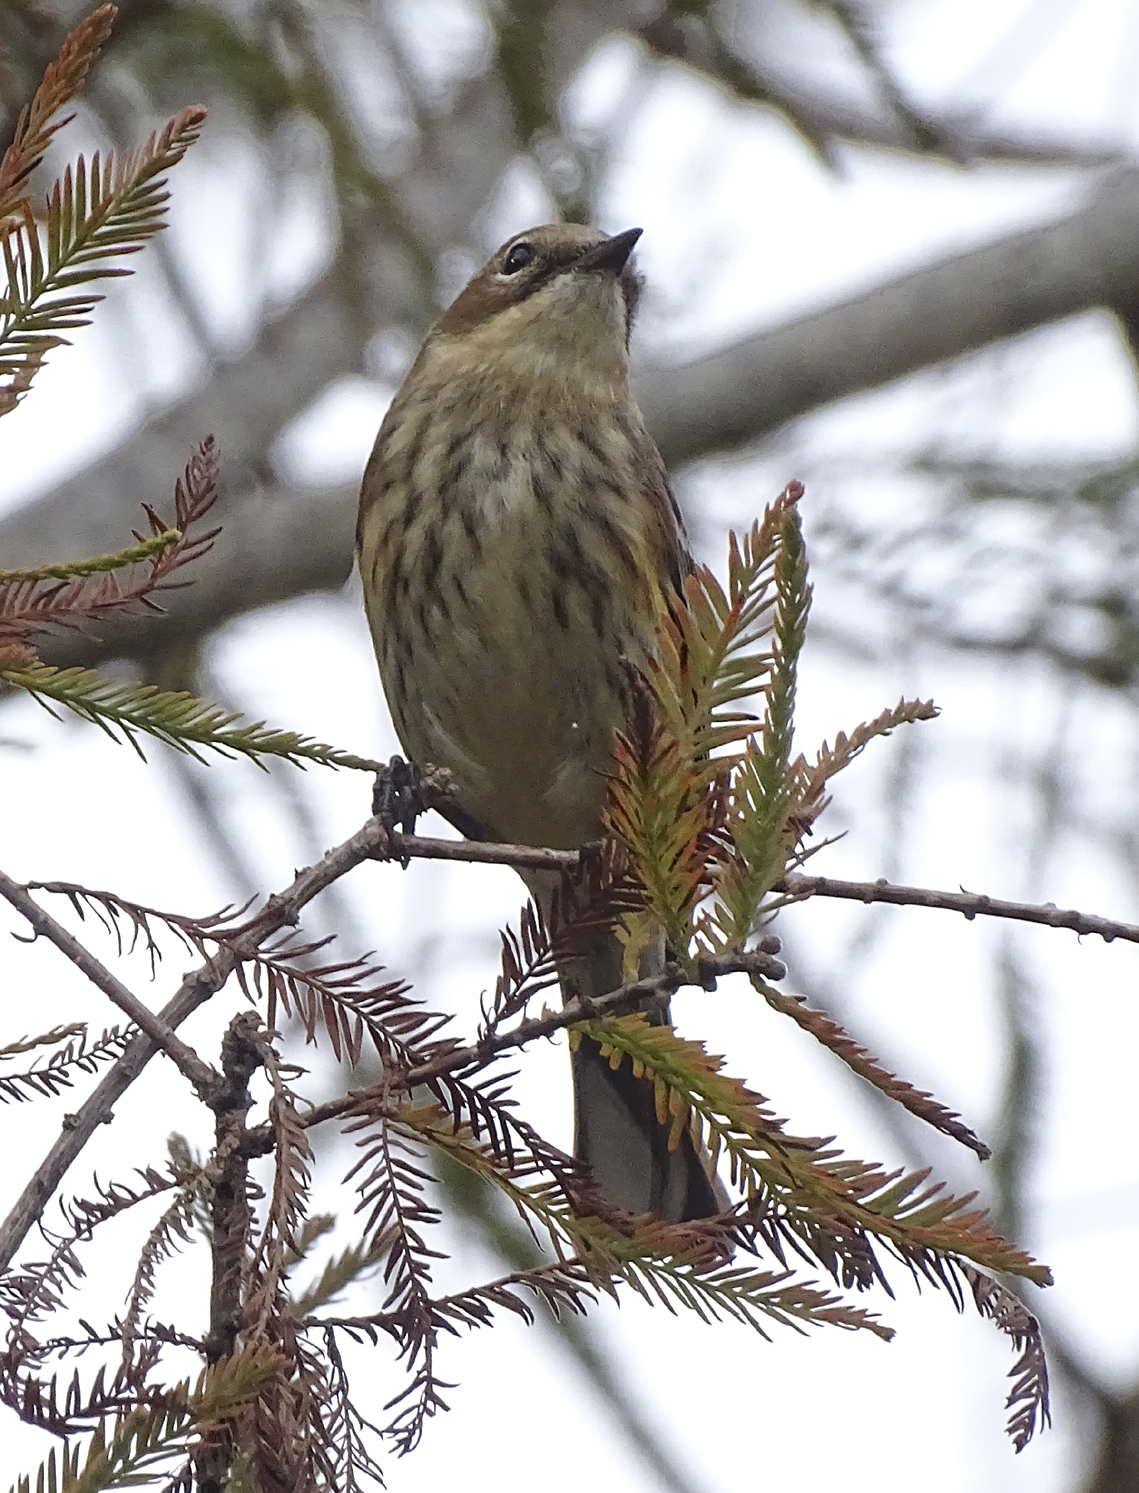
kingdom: Animalia
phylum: Chordata
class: Aves
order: Passeriformes
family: Parulidae
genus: Setophaga
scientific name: Setophaga coronata
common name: Myrtle warbler
